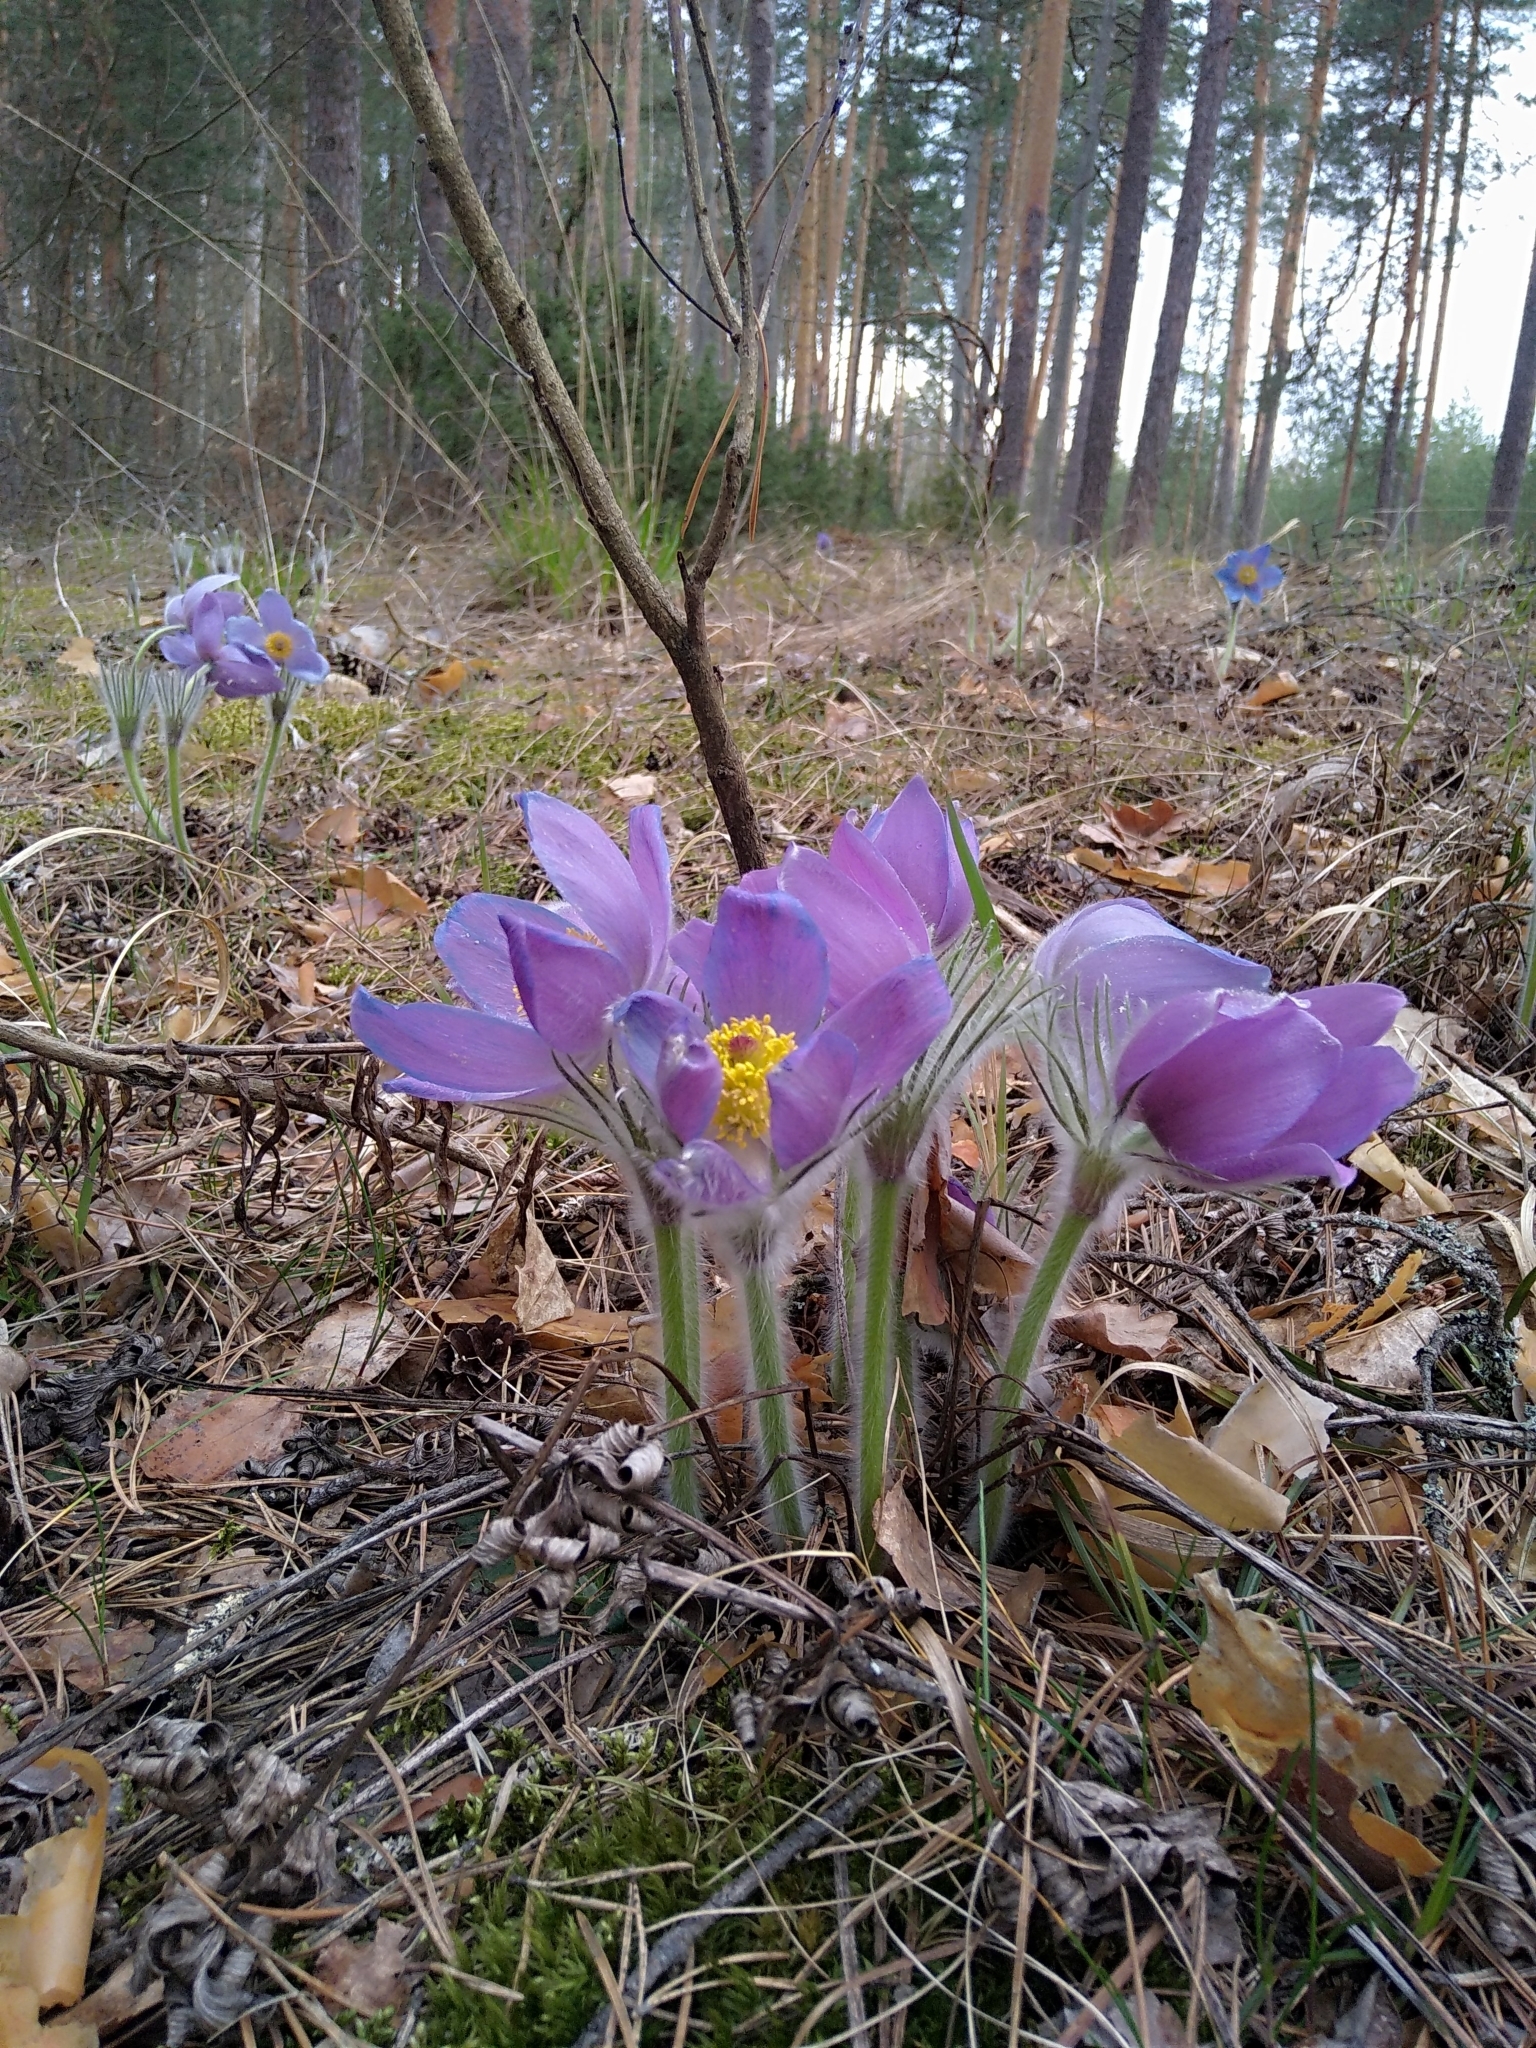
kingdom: Plantae
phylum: Tracheophyta
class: Magnoliopsida
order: Ranunculales
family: Ranunculaceae
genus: Pulsatilla
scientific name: Pulsatilla patens
